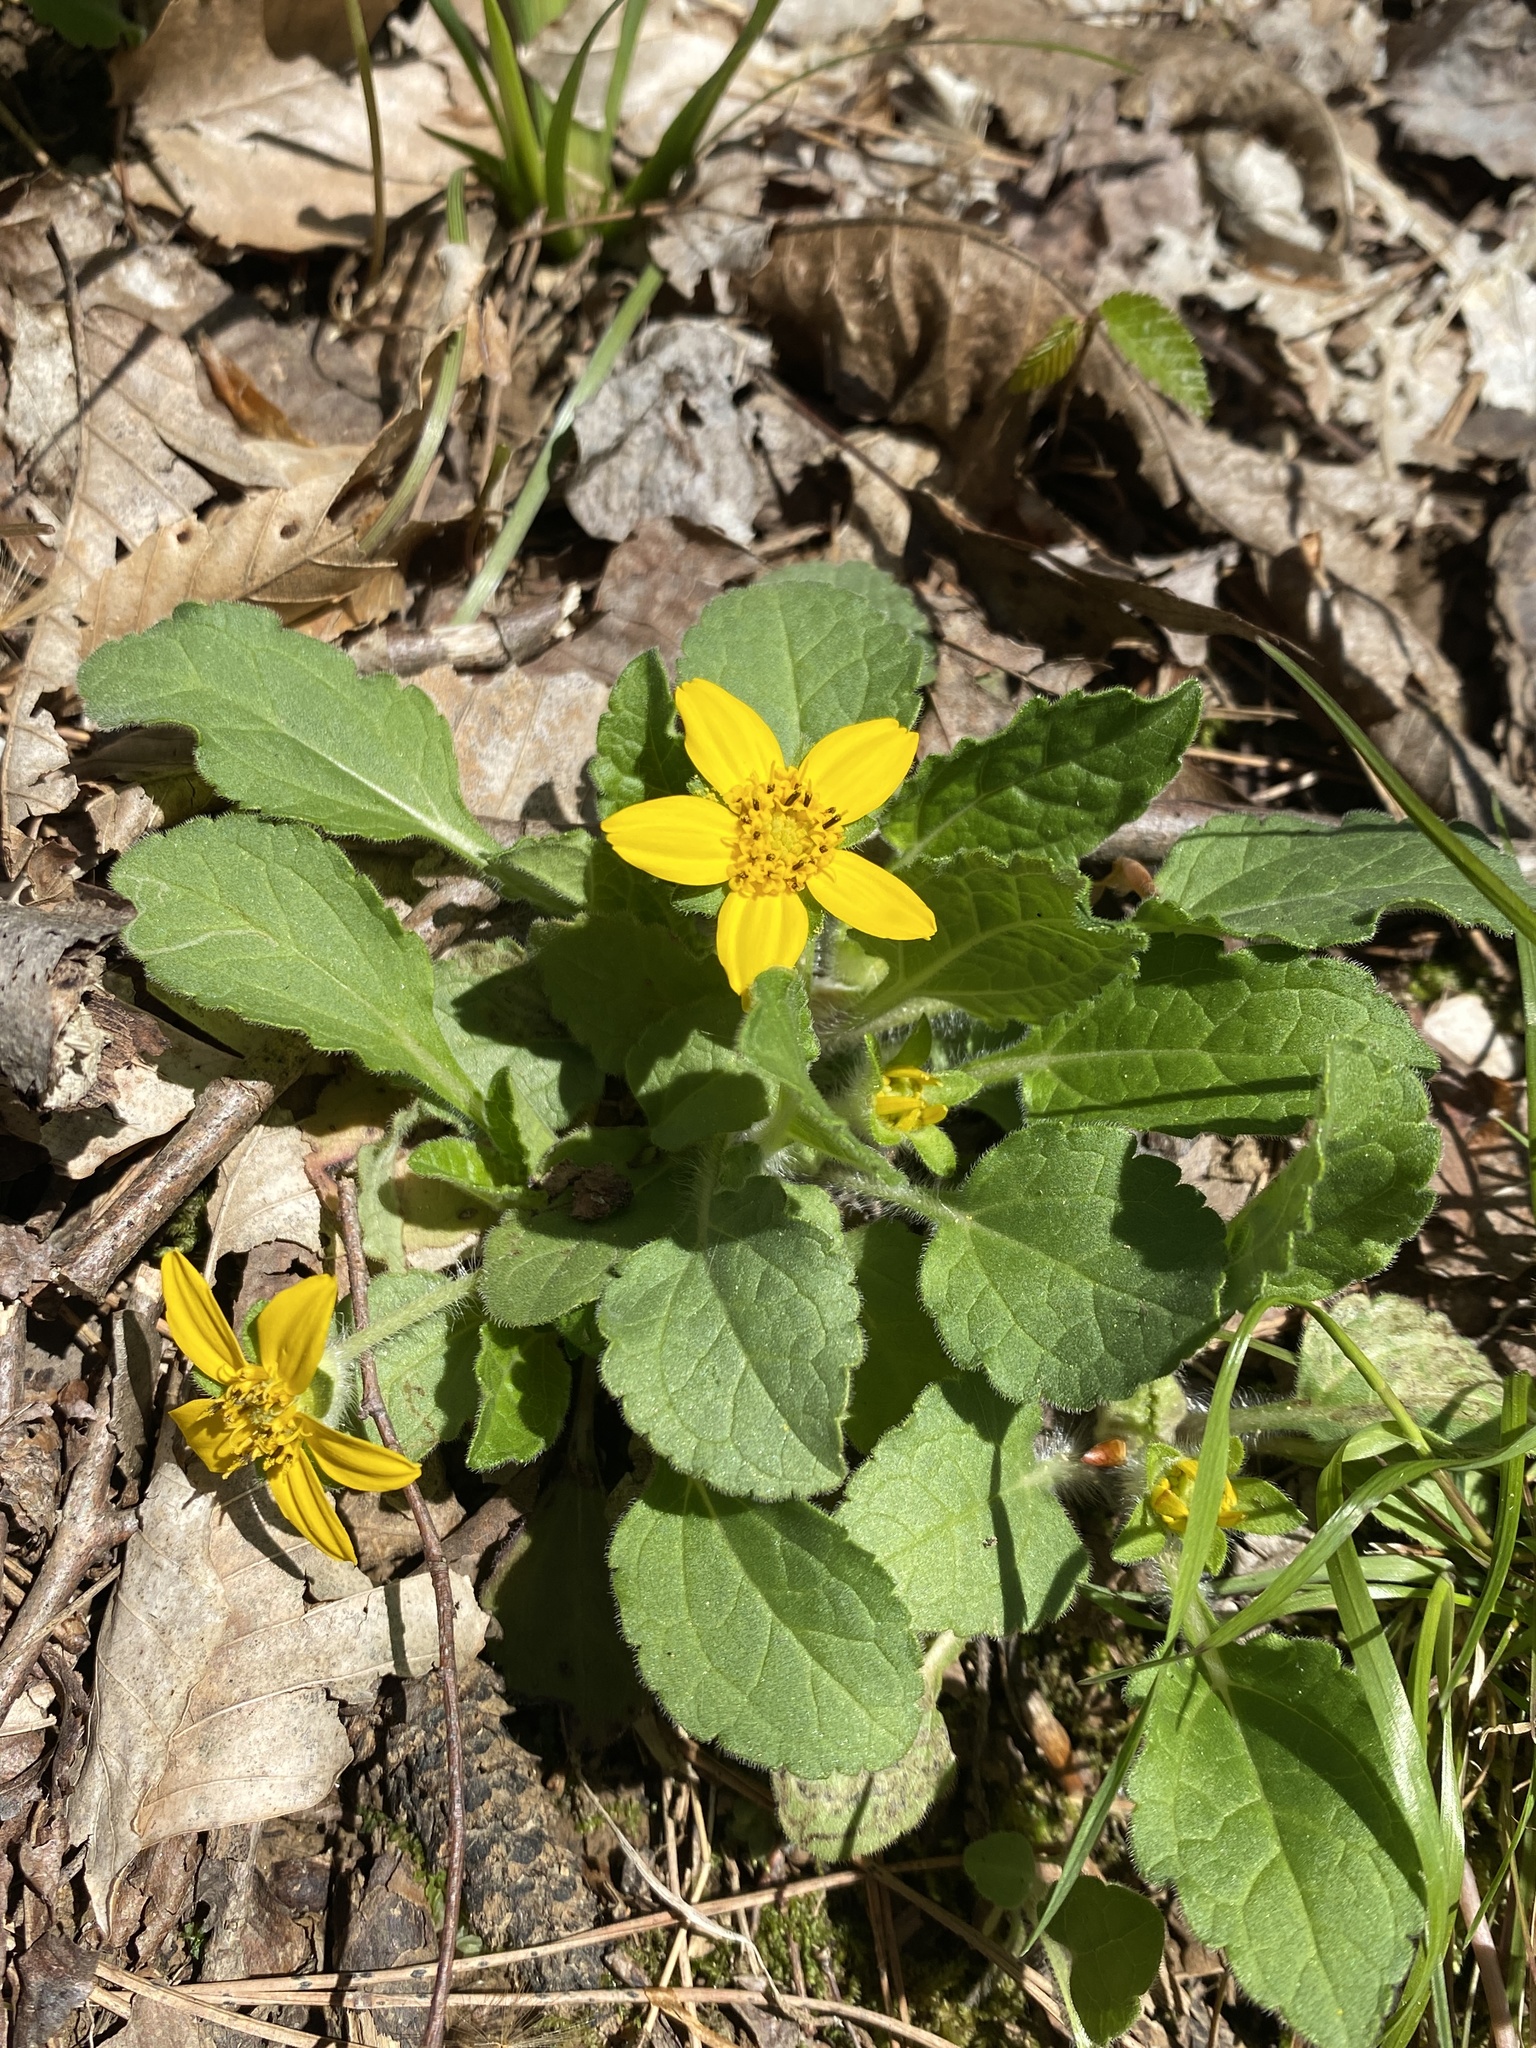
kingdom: Plantae
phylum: Tracheophyta
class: Magnoliopsida
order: Asterales
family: Asteraceae
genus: Chrysogonum
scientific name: Chrysogonum virginianum
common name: Golden-knee
